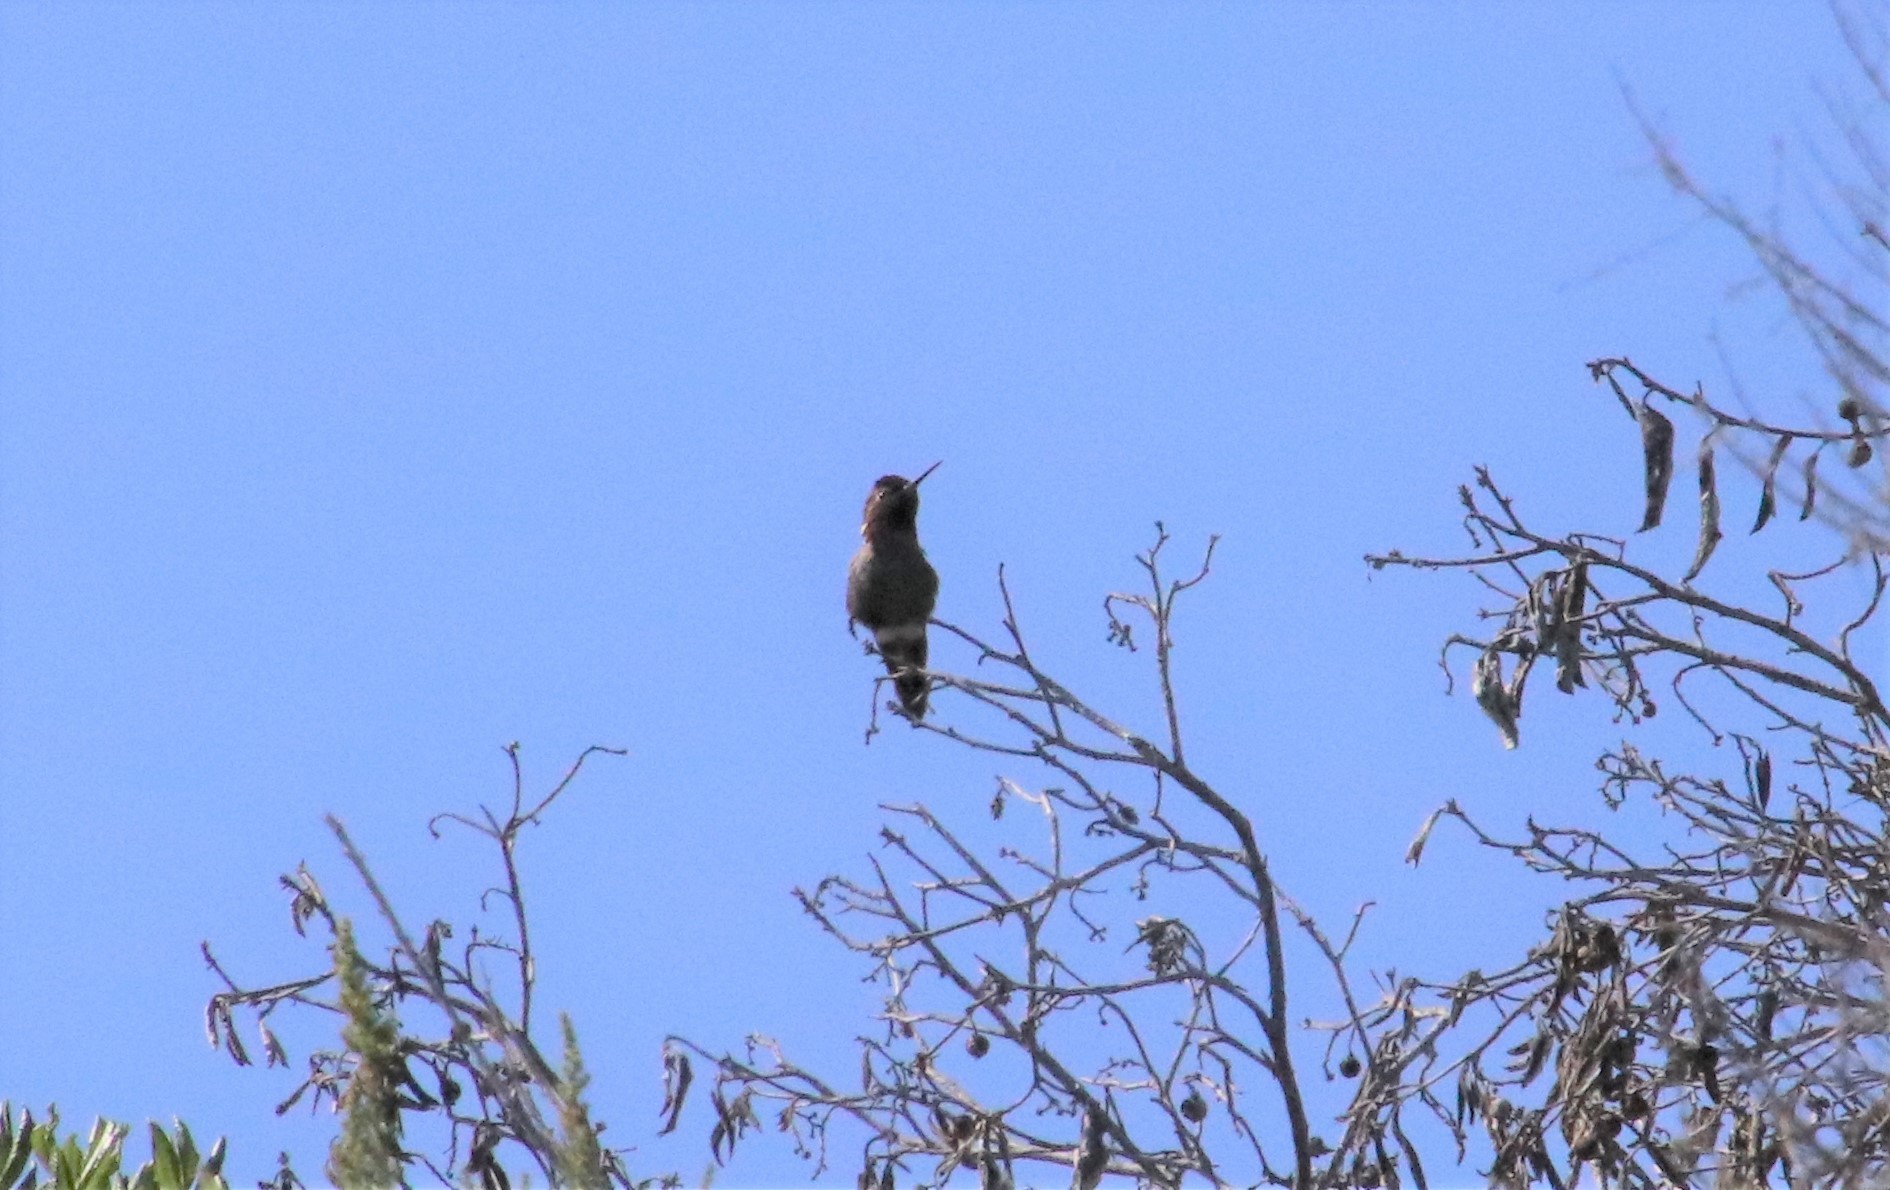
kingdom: Animalia
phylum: Chordata
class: Aves
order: Apodiformes
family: Trochilidae
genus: Calypte
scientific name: Calypte anna
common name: Anna's hummingbird
